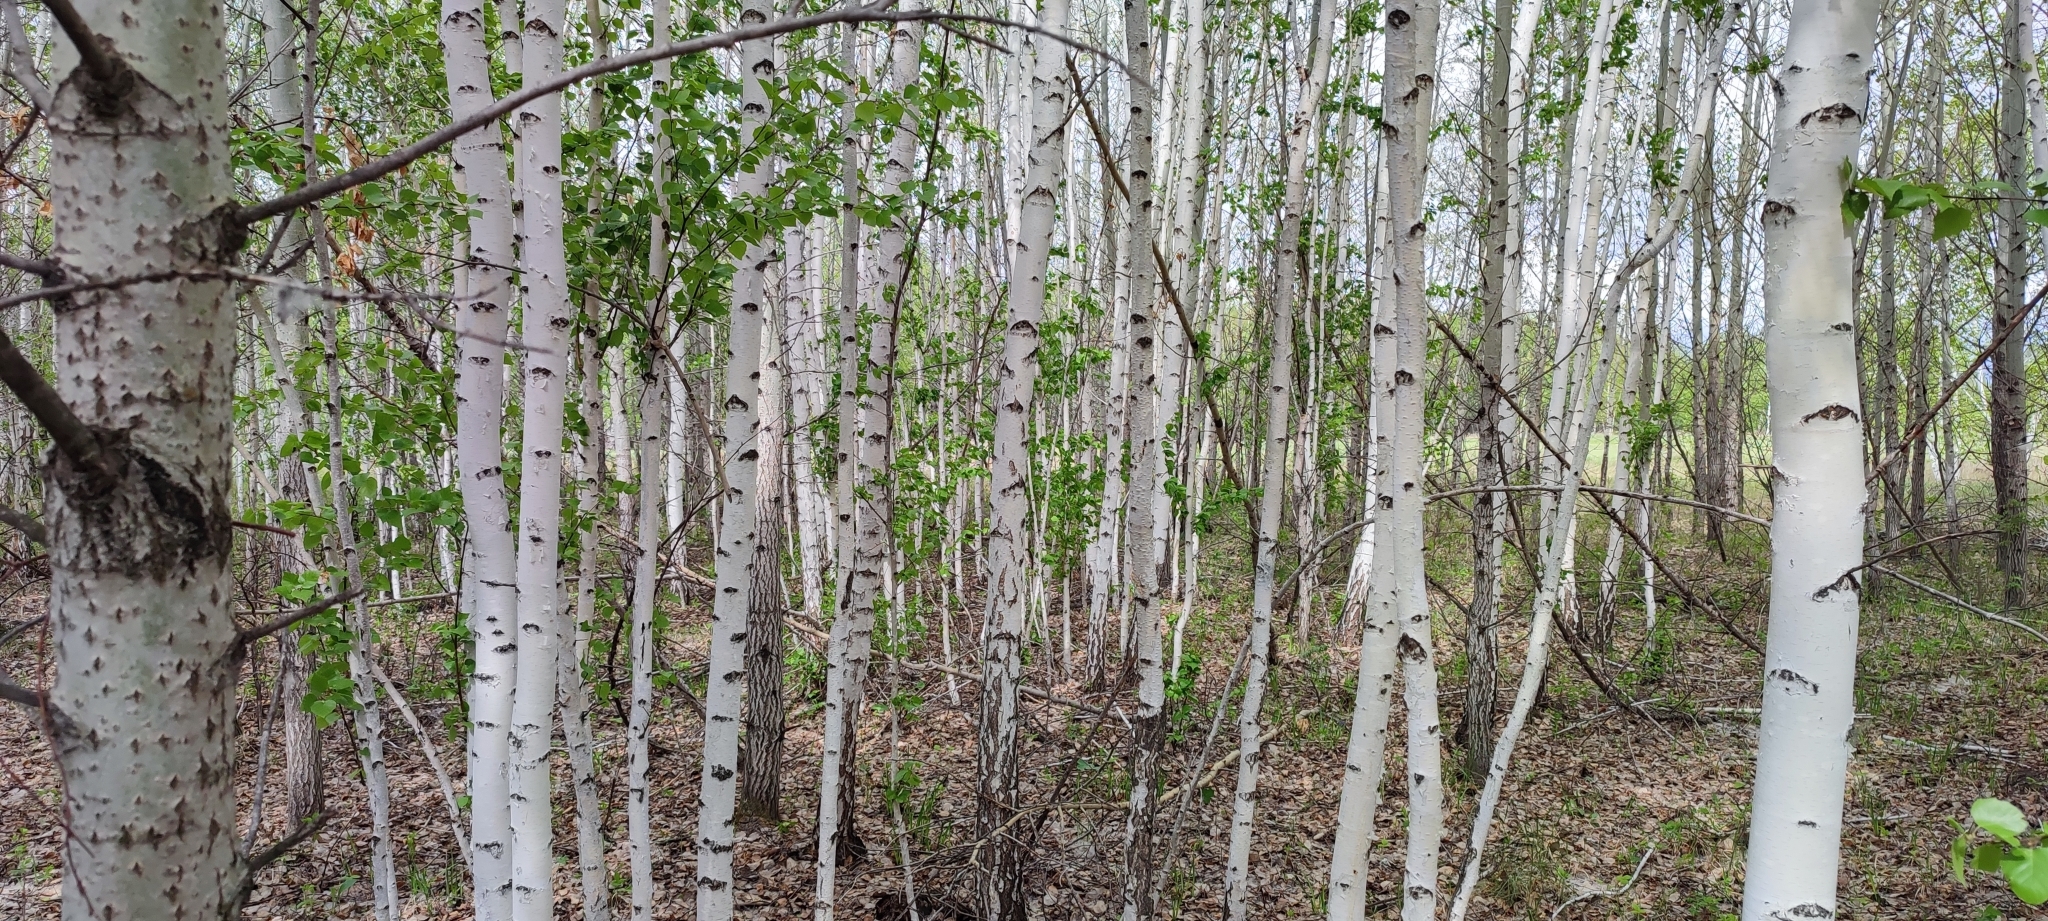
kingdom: Plantae
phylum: Tracheophyta
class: Magnoliopsida
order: Fagales
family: Betulaceae
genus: Betula
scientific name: Betula pendula
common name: Silver birch
